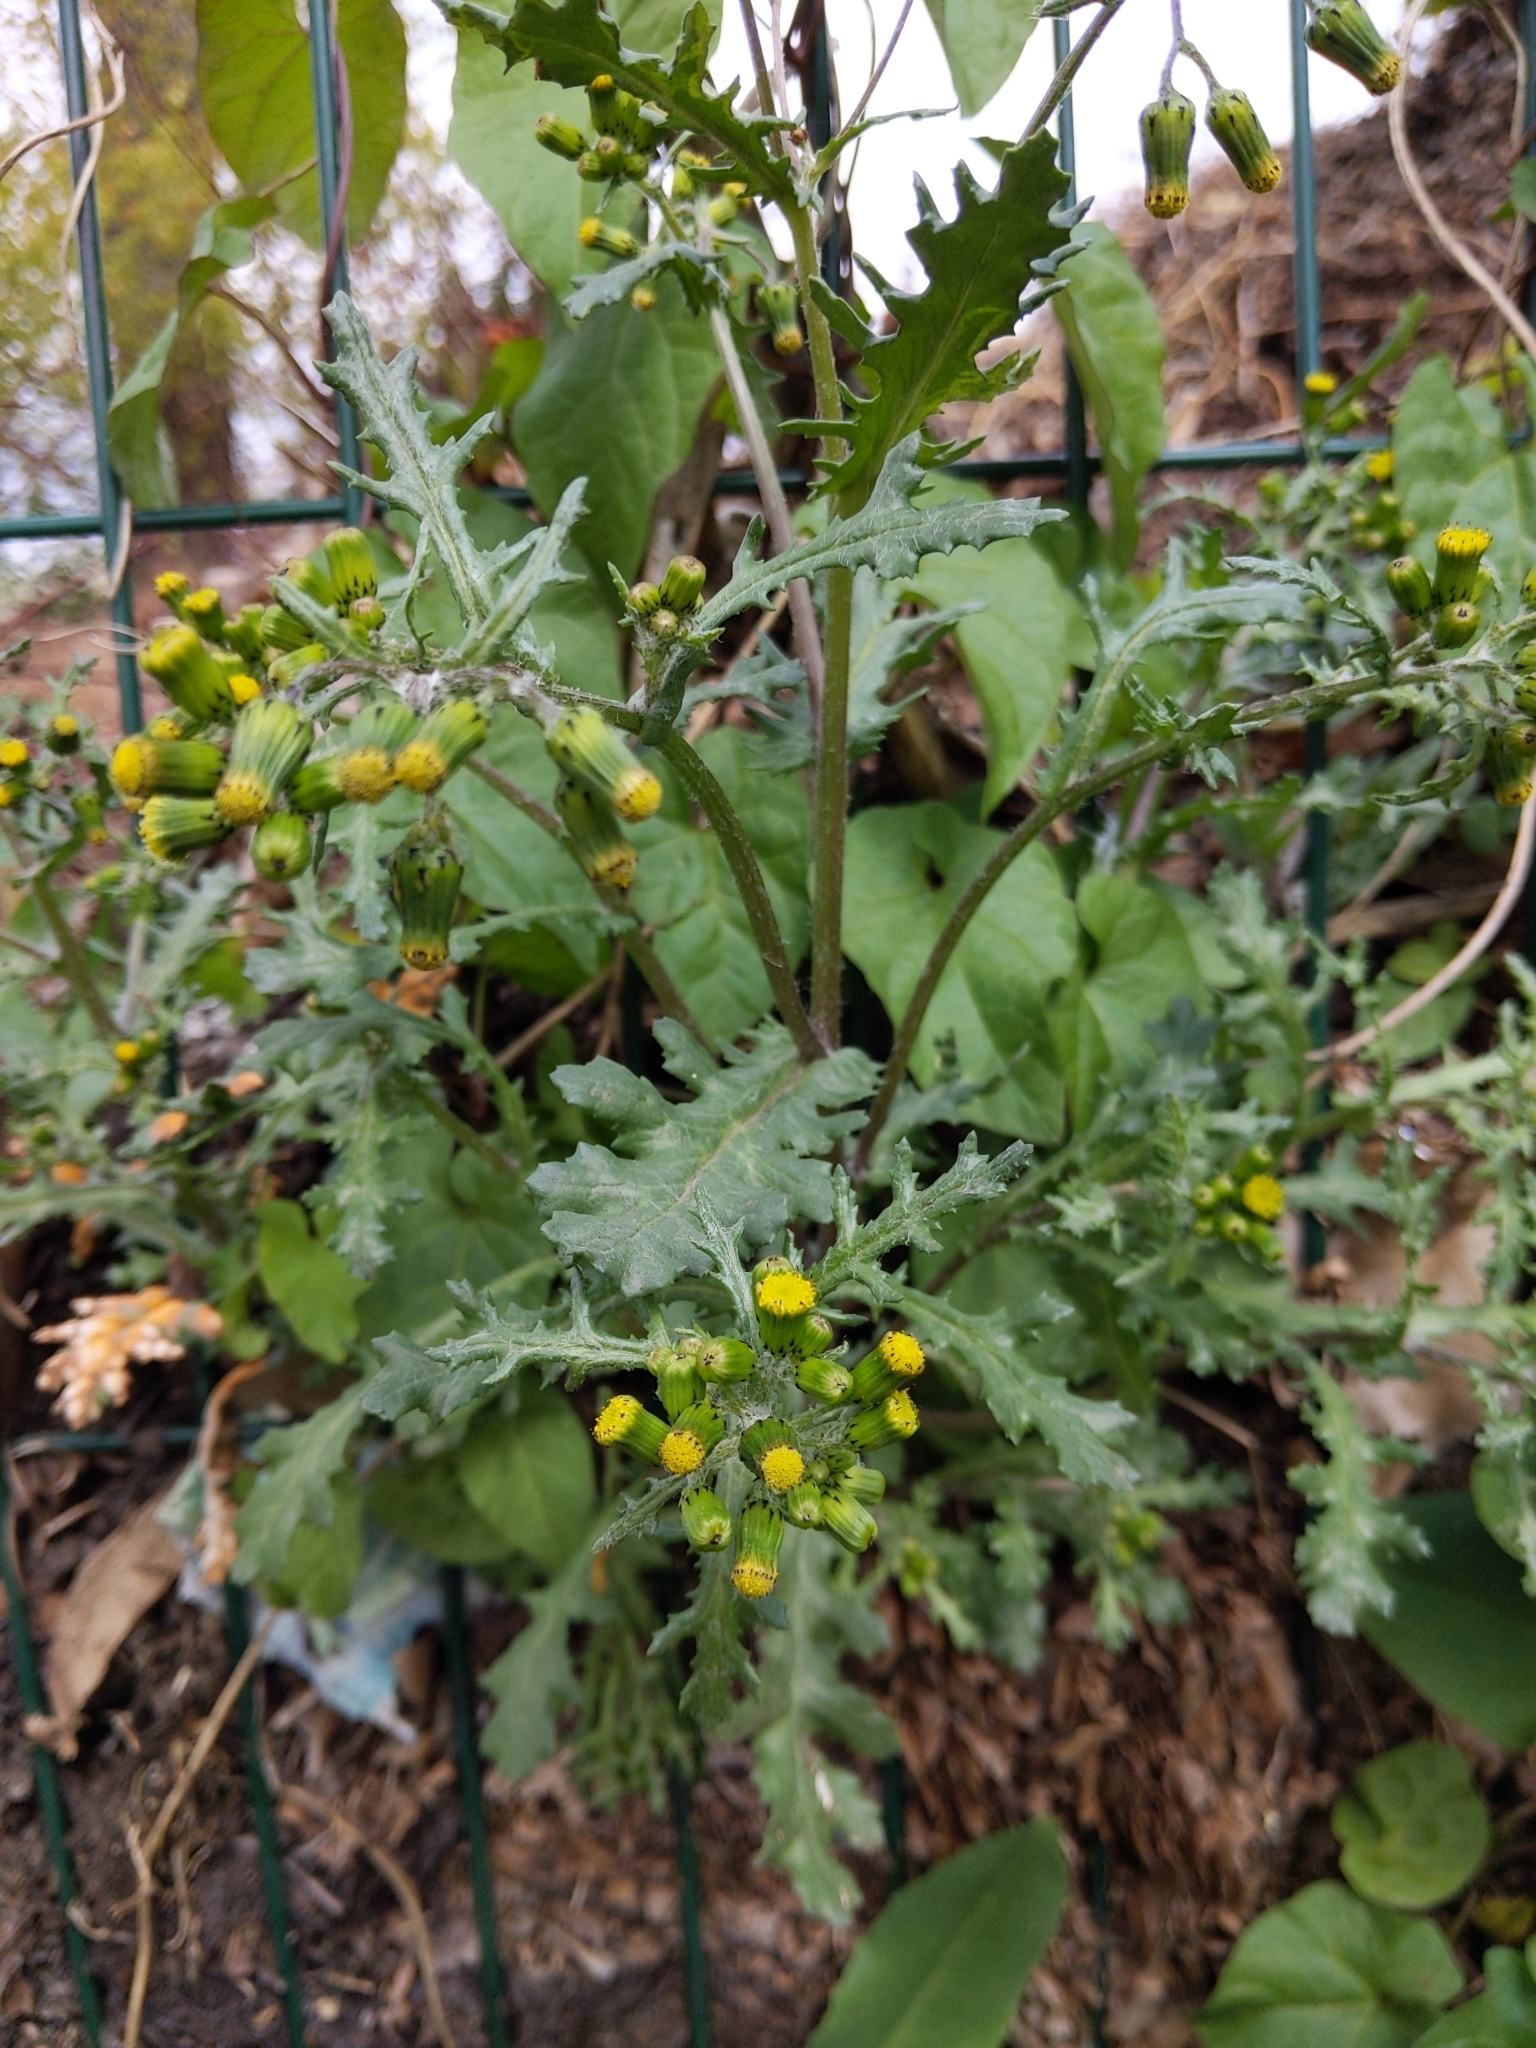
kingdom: Plantae
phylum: Tracheophyta
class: Magnoliopsida
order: Asterales
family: Asteraceae
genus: Senecio
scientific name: Senecio vulgaris
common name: Old-man-in-the-spring
